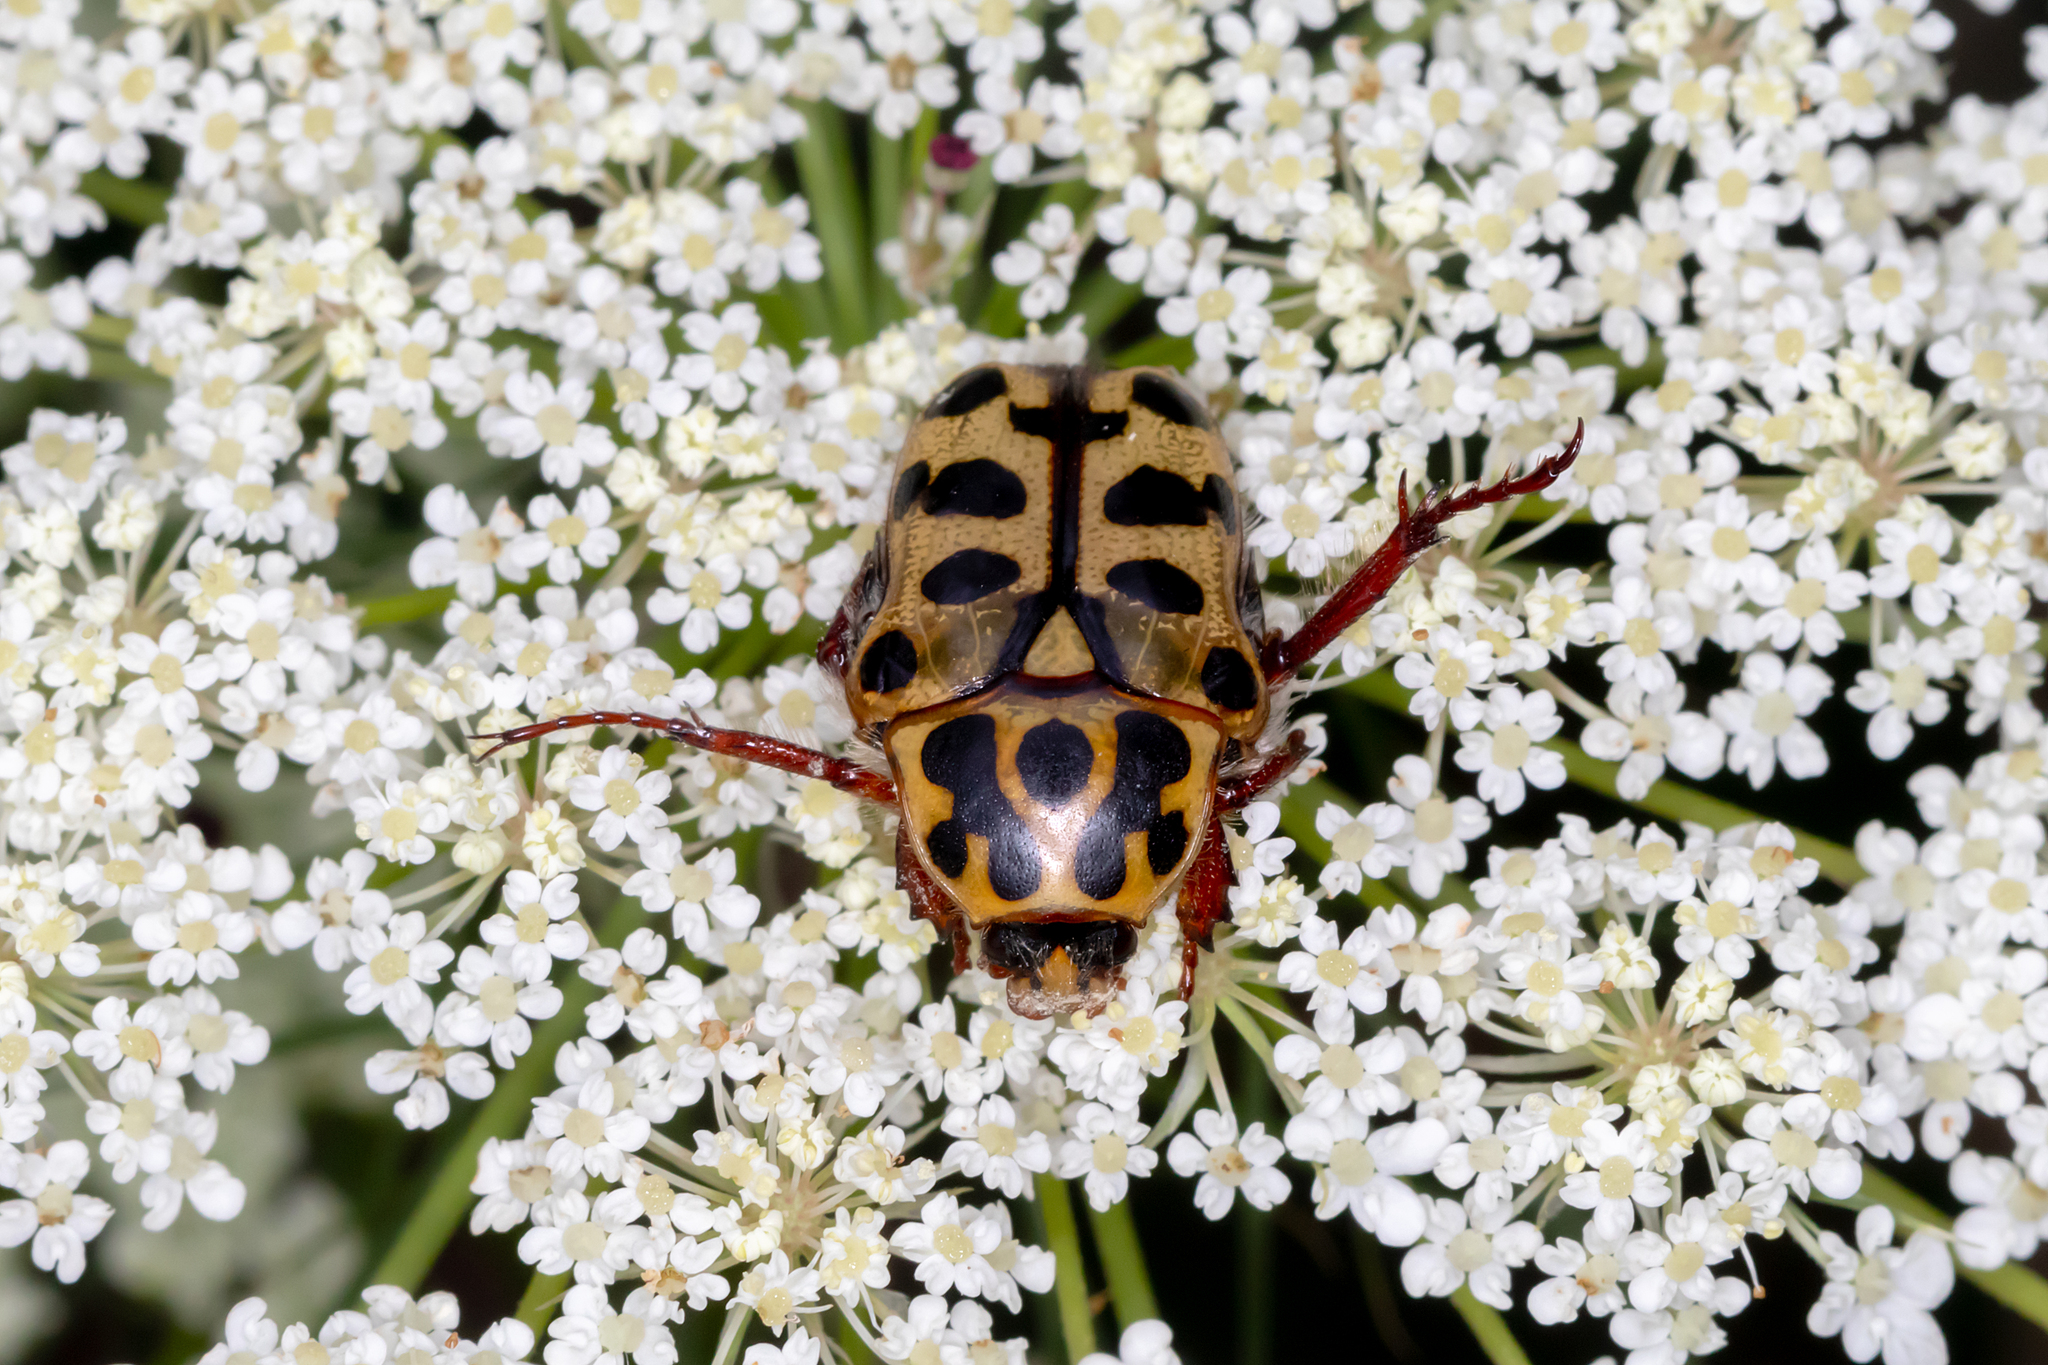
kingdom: Animalia
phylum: Arthropoda
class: Insecta
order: Coleoptera
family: Scarabaeidae
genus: Neorrhina
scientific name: Neorrhina punctatum
